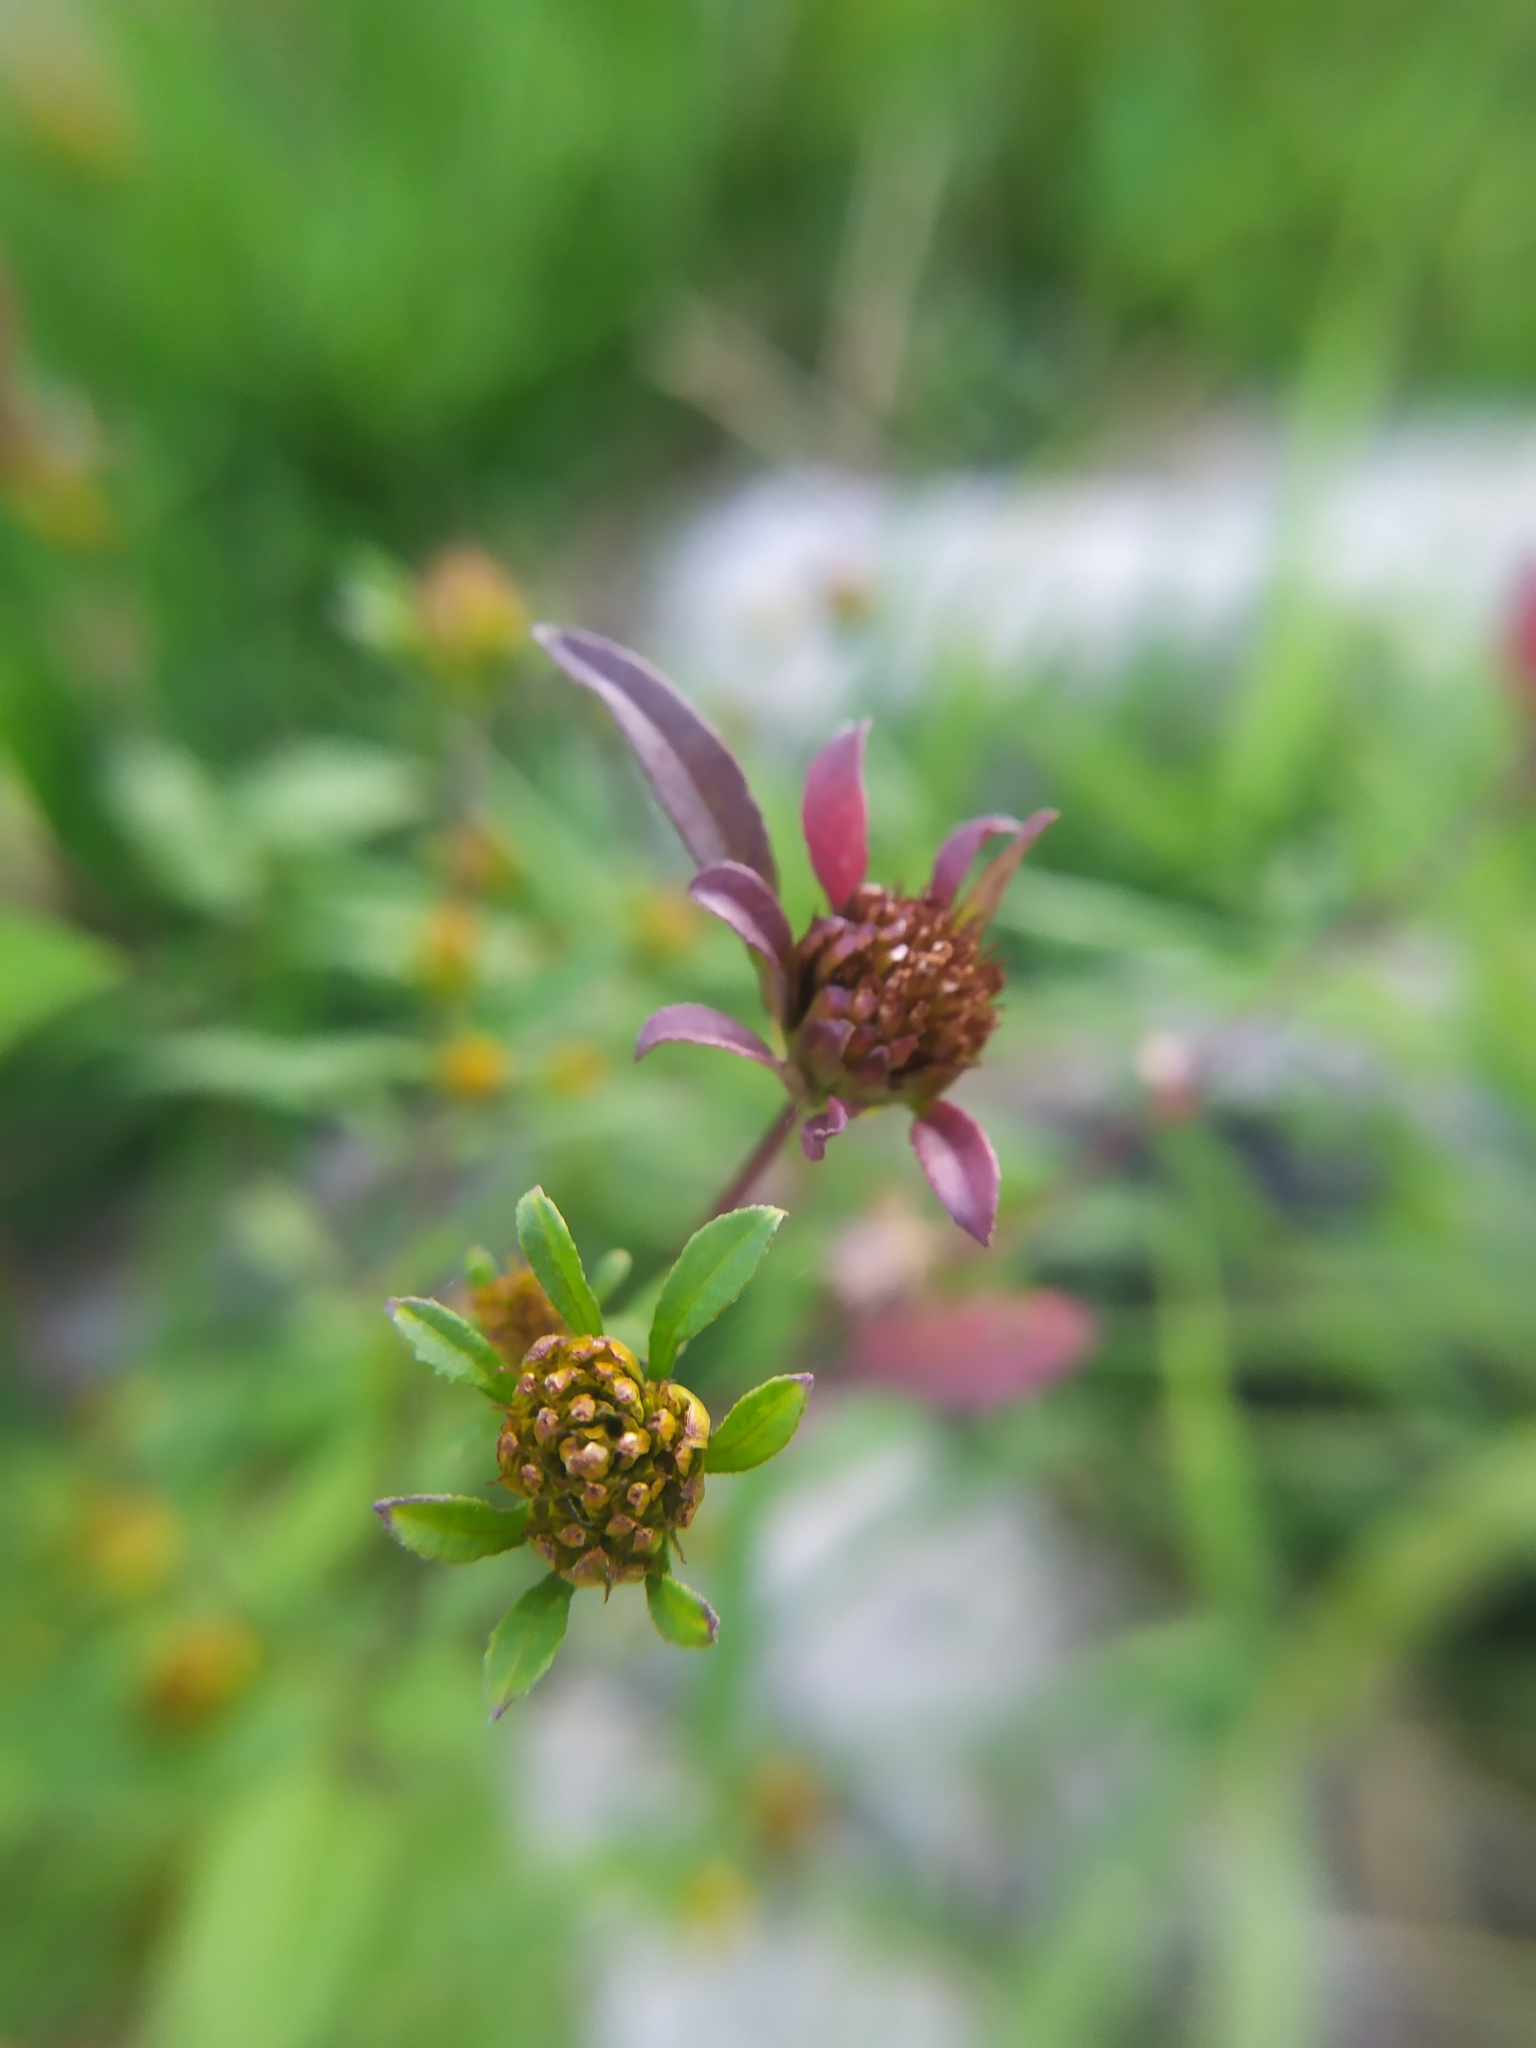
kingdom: Plantae
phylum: Tracheophyta
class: Magnoliopsida
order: Asterales
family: Asteraceae
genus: Bidens
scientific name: Bidens frondosa
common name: Beggarticks
